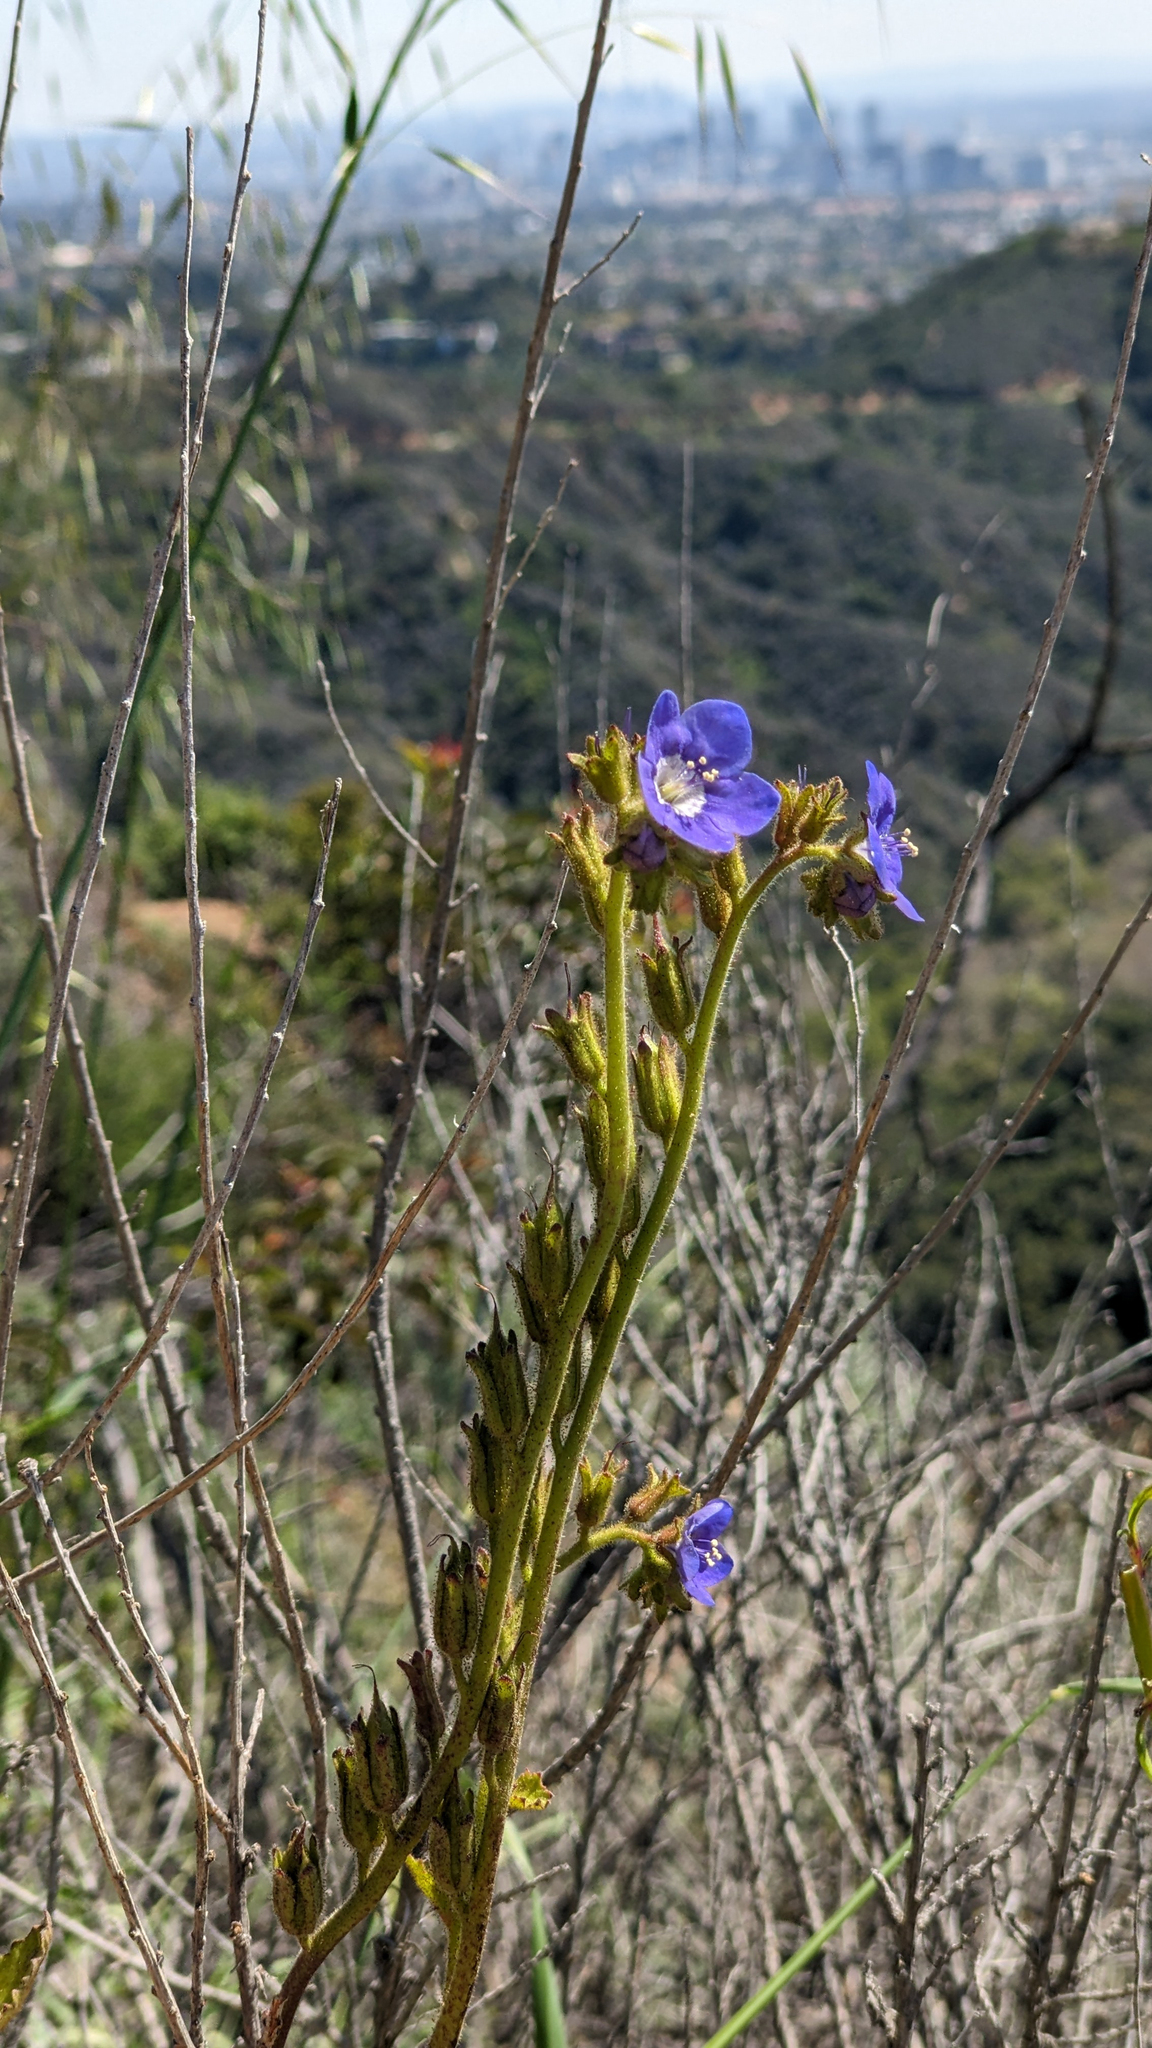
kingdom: Plantae
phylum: Tracheophyta
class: Magnoliopsida
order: Boraginales
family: Hydrophyllaceae
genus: Phacelia
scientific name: Phacelia viscida
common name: Sticky phacelia
